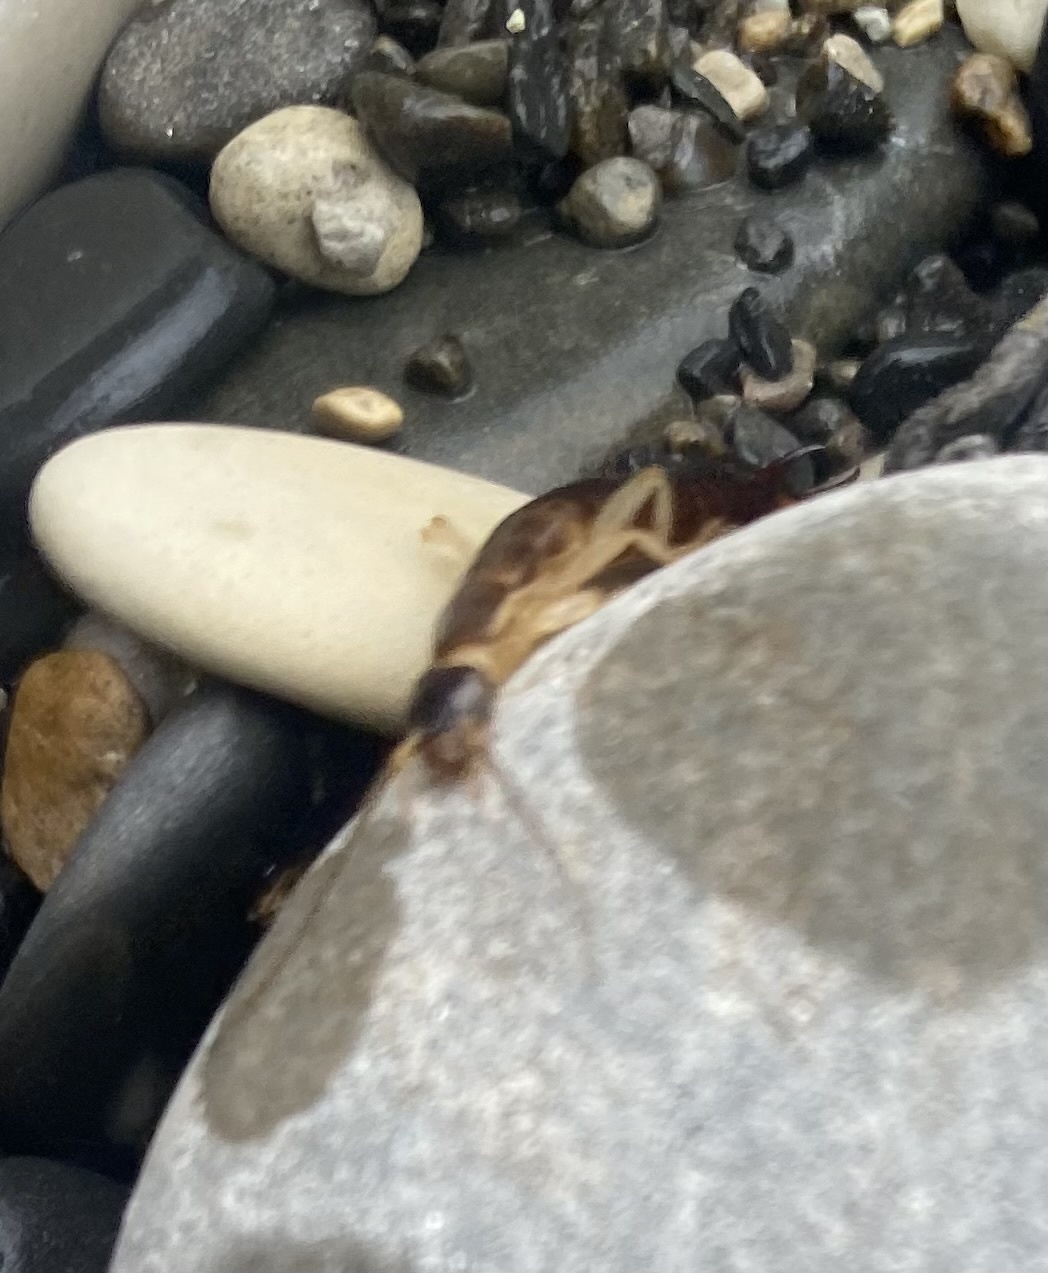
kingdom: Animalia
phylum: Arthropoda
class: Insecta
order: Dermaptera
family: Anisolabididae
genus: Anisolabis
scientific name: Anisolabis maritima
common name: Maritime earwig
